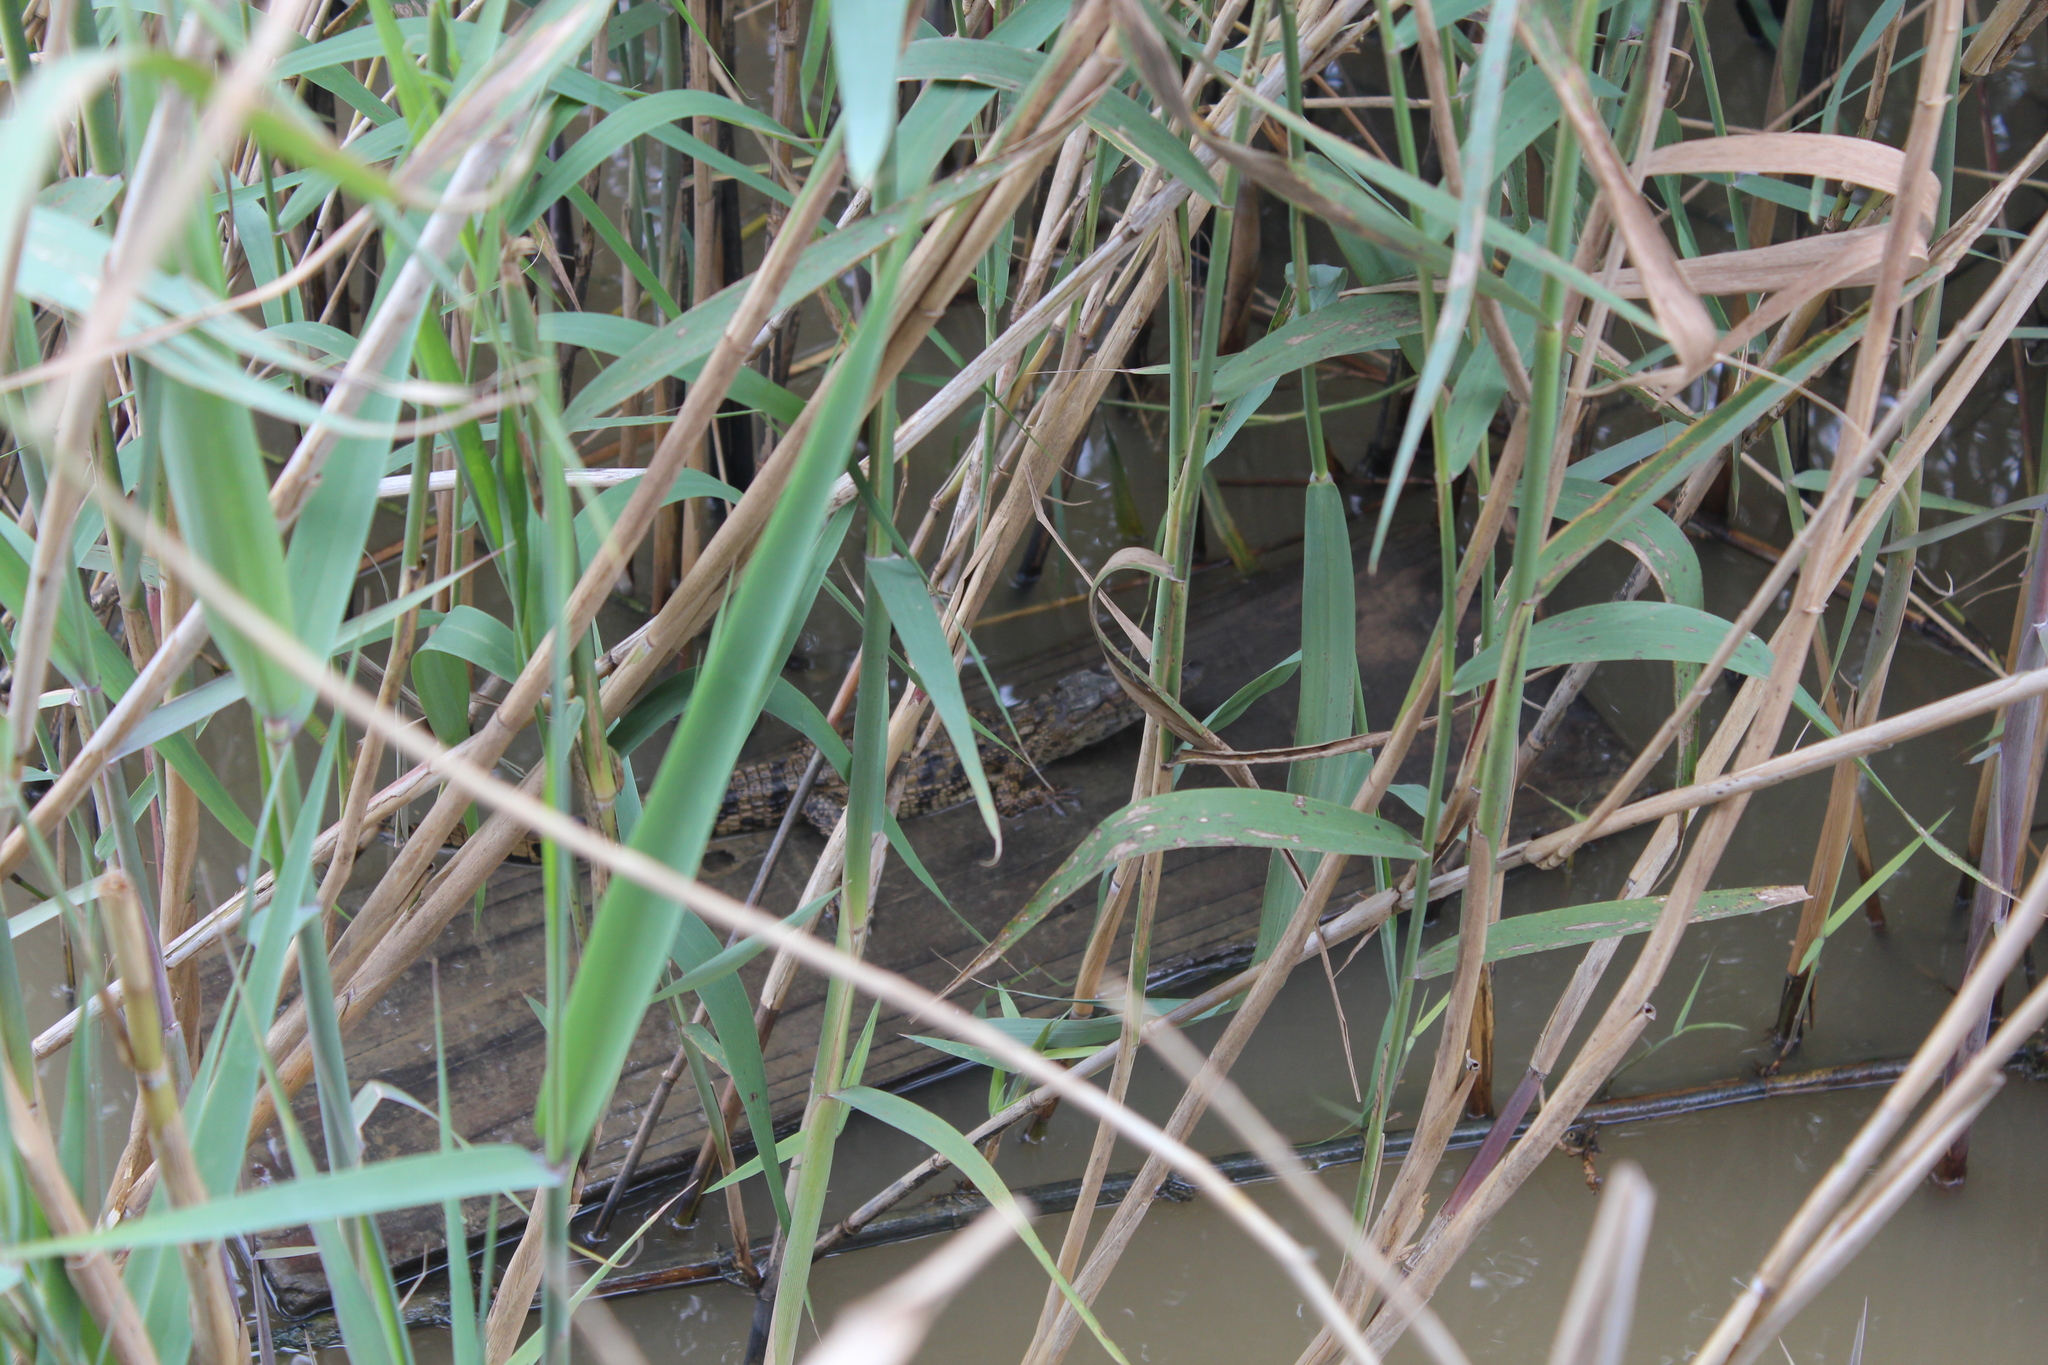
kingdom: Plantae
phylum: Tracheophyta
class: Liliopsida
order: Poales
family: Poaceae
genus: Phragmites
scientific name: Phragmites australis
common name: Common reed
